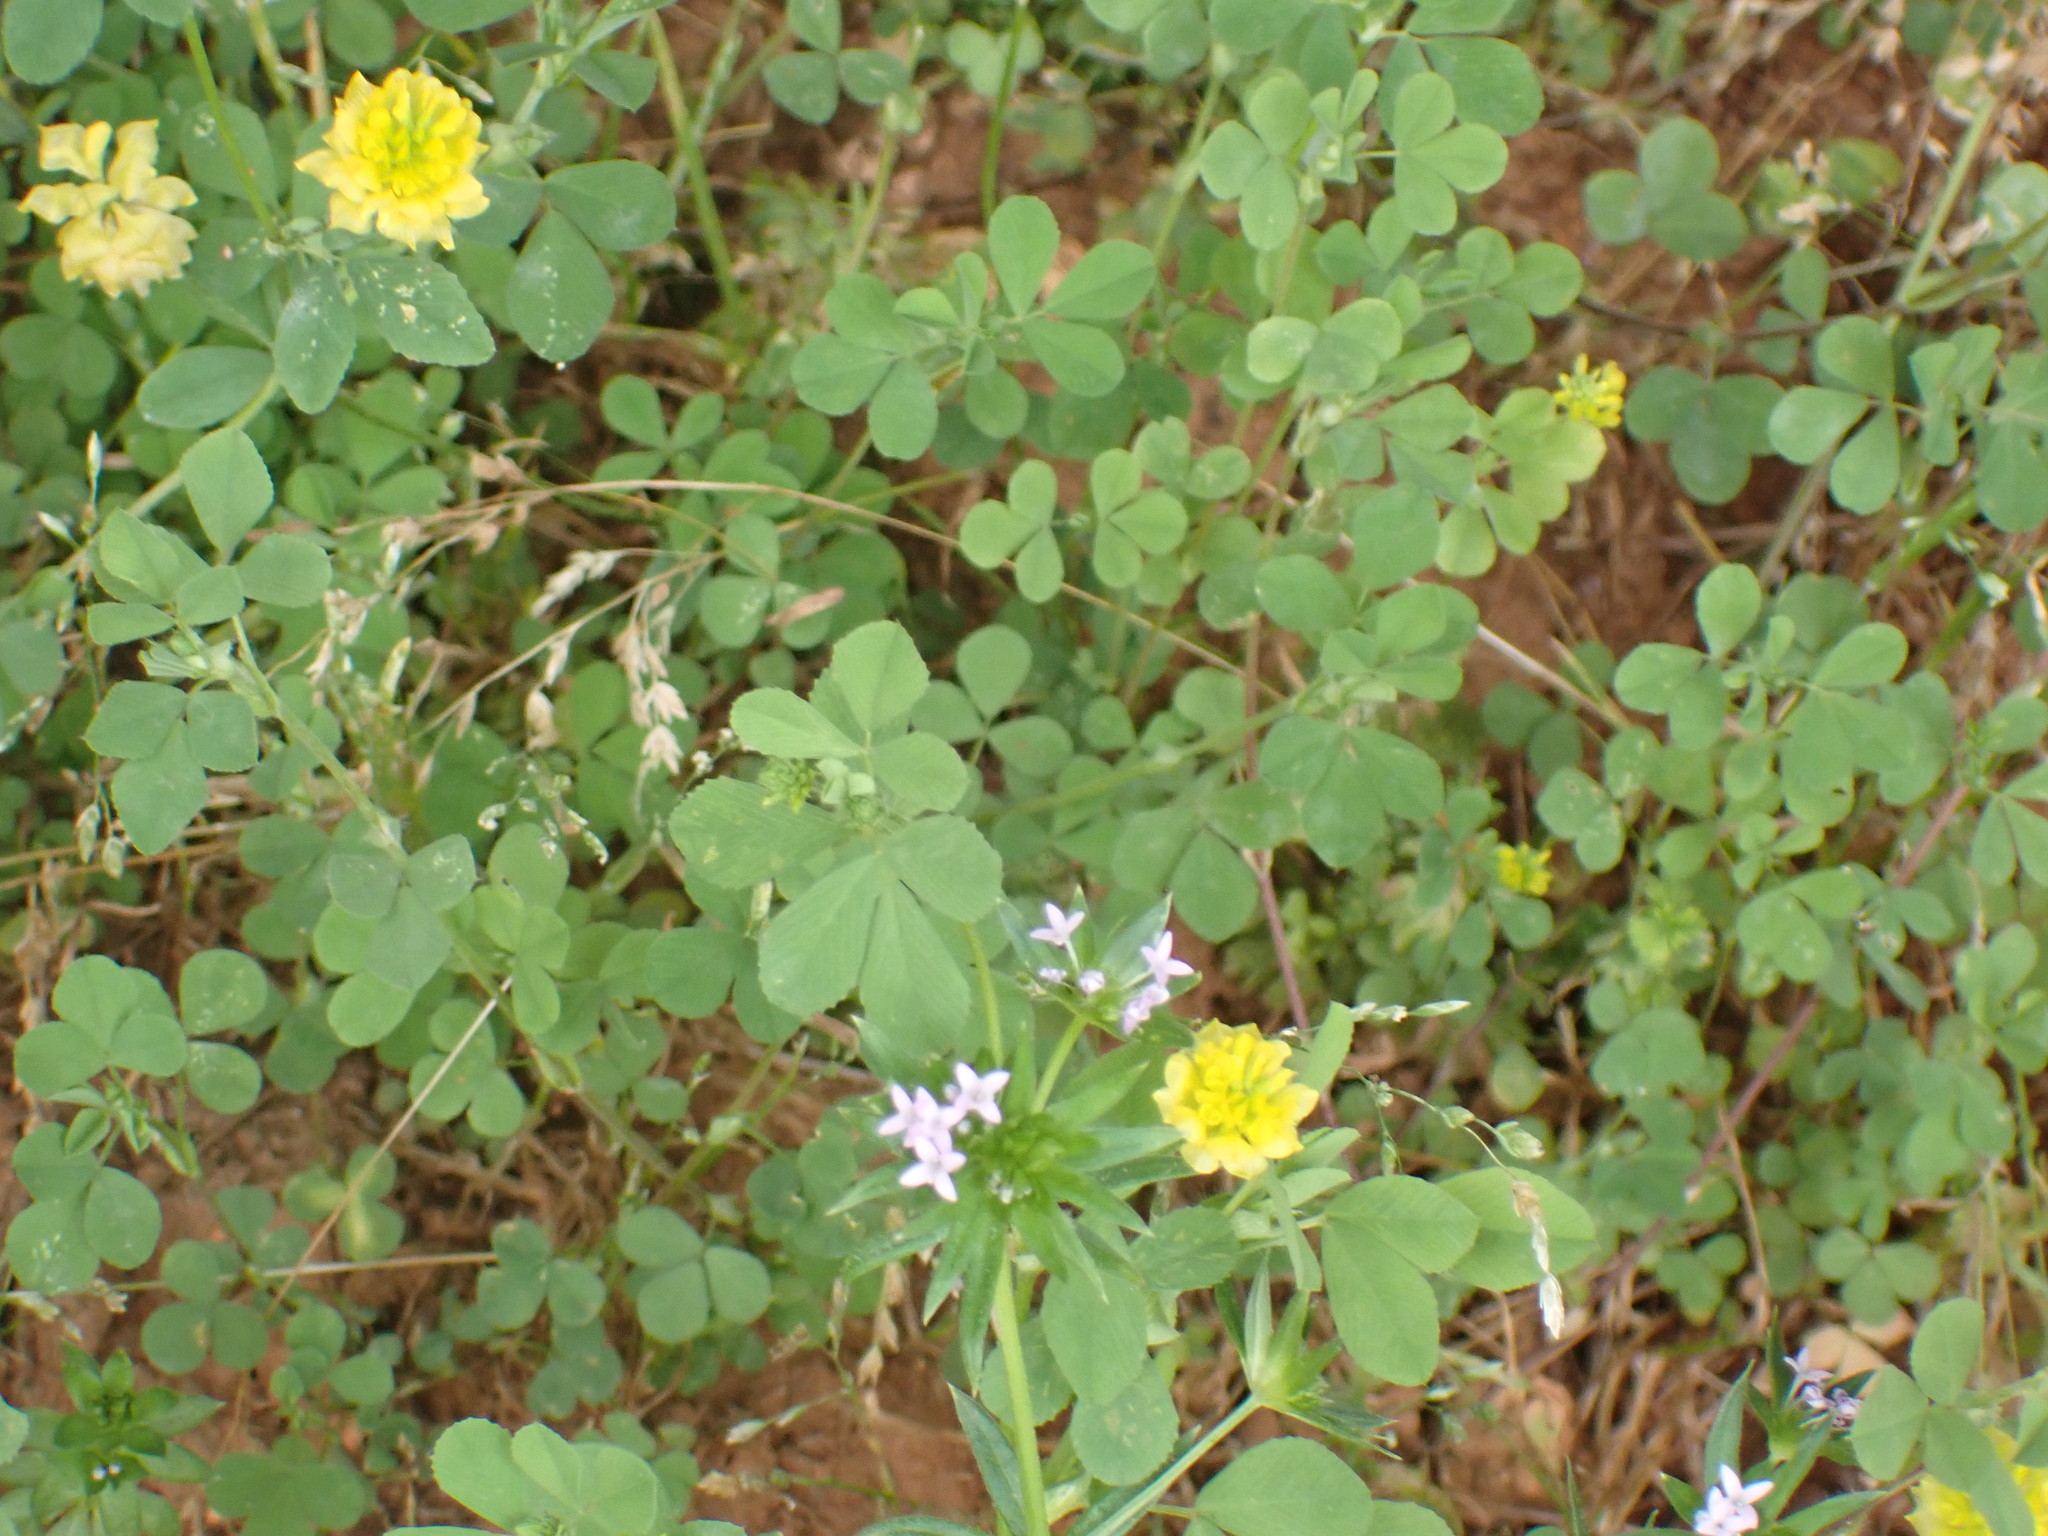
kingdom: Plantae
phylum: Tracheophyta
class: Magnoliopsida
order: Fabales
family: Fabaceae
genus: Trifolium
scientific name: Trifolium campestre
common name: Field clover
